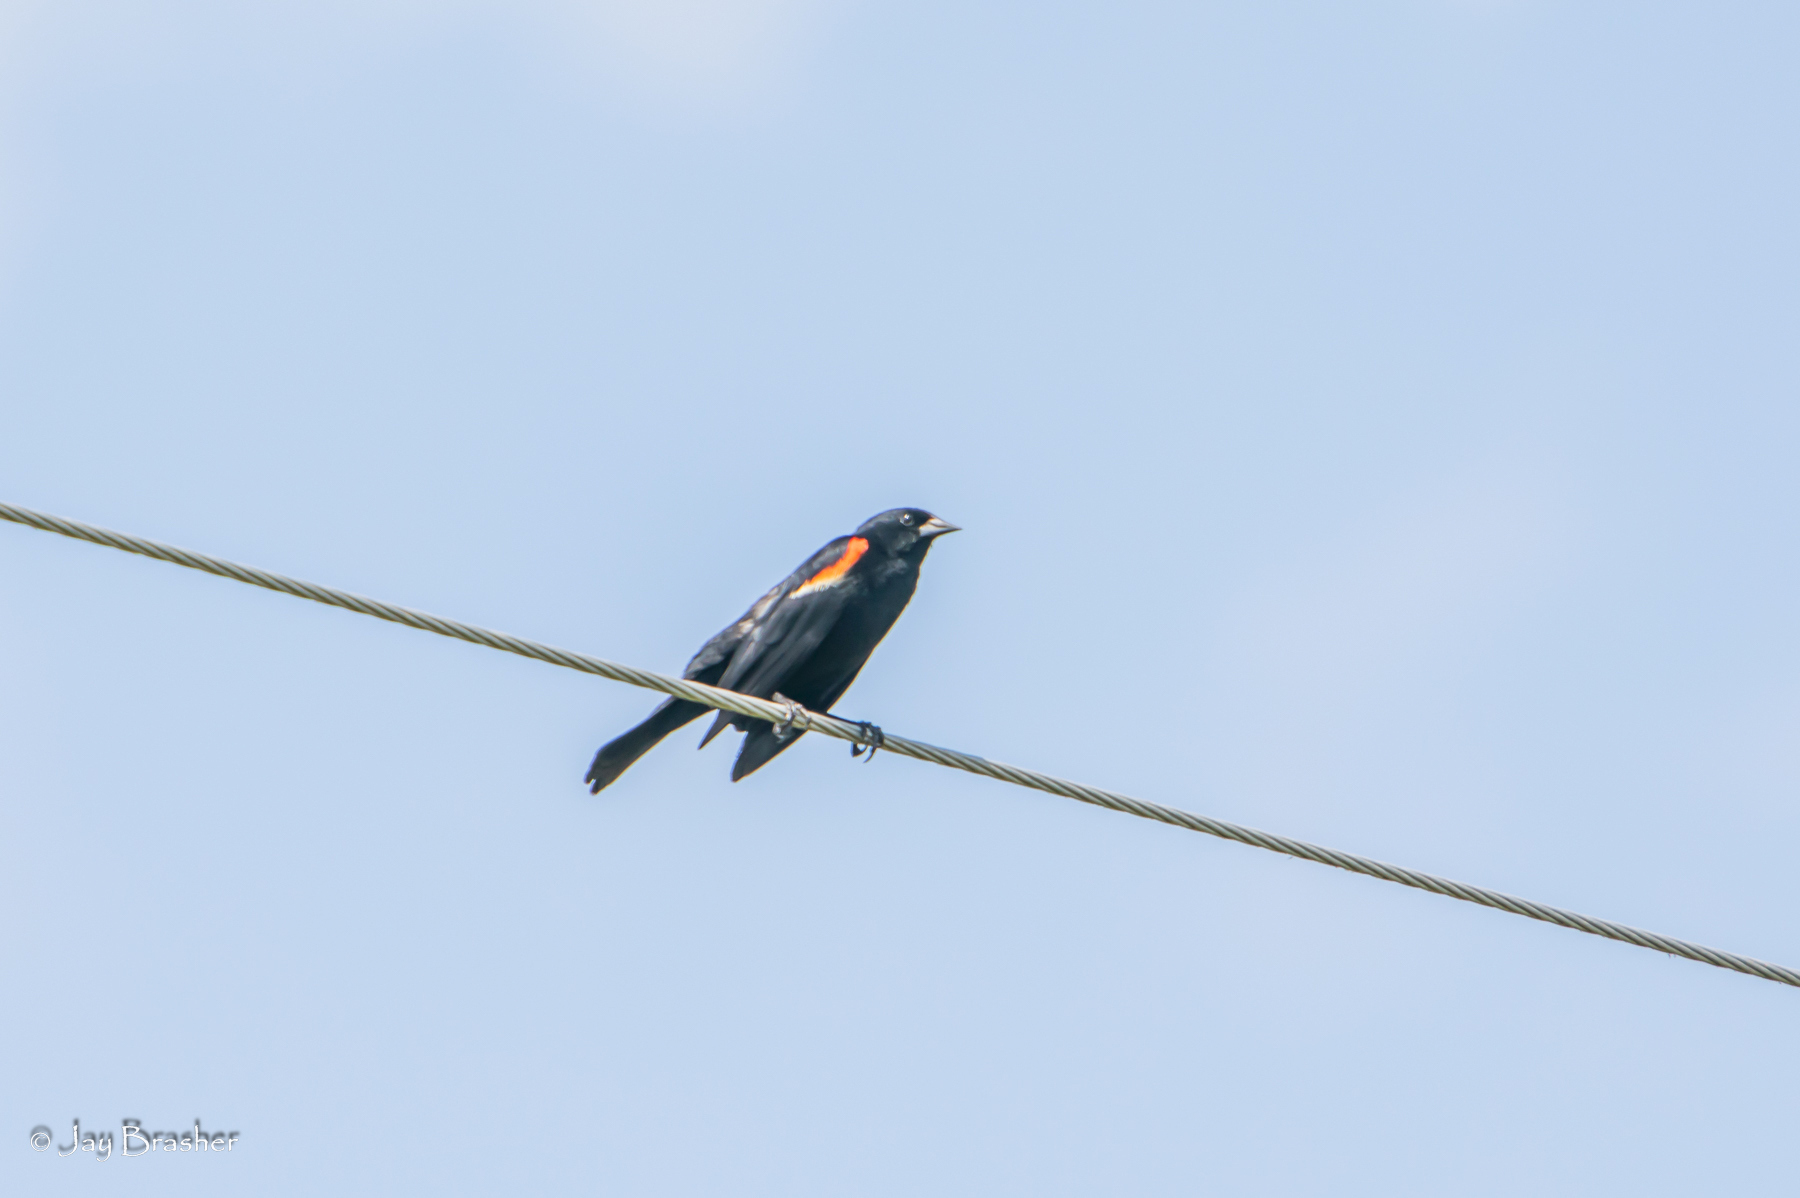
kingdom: Animalia
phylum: Chordata
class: Aves
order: Passeriformes
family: Icteridae
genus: Agelaius
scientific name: Agelaius phoeniceus
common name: Red-winged blackbird
